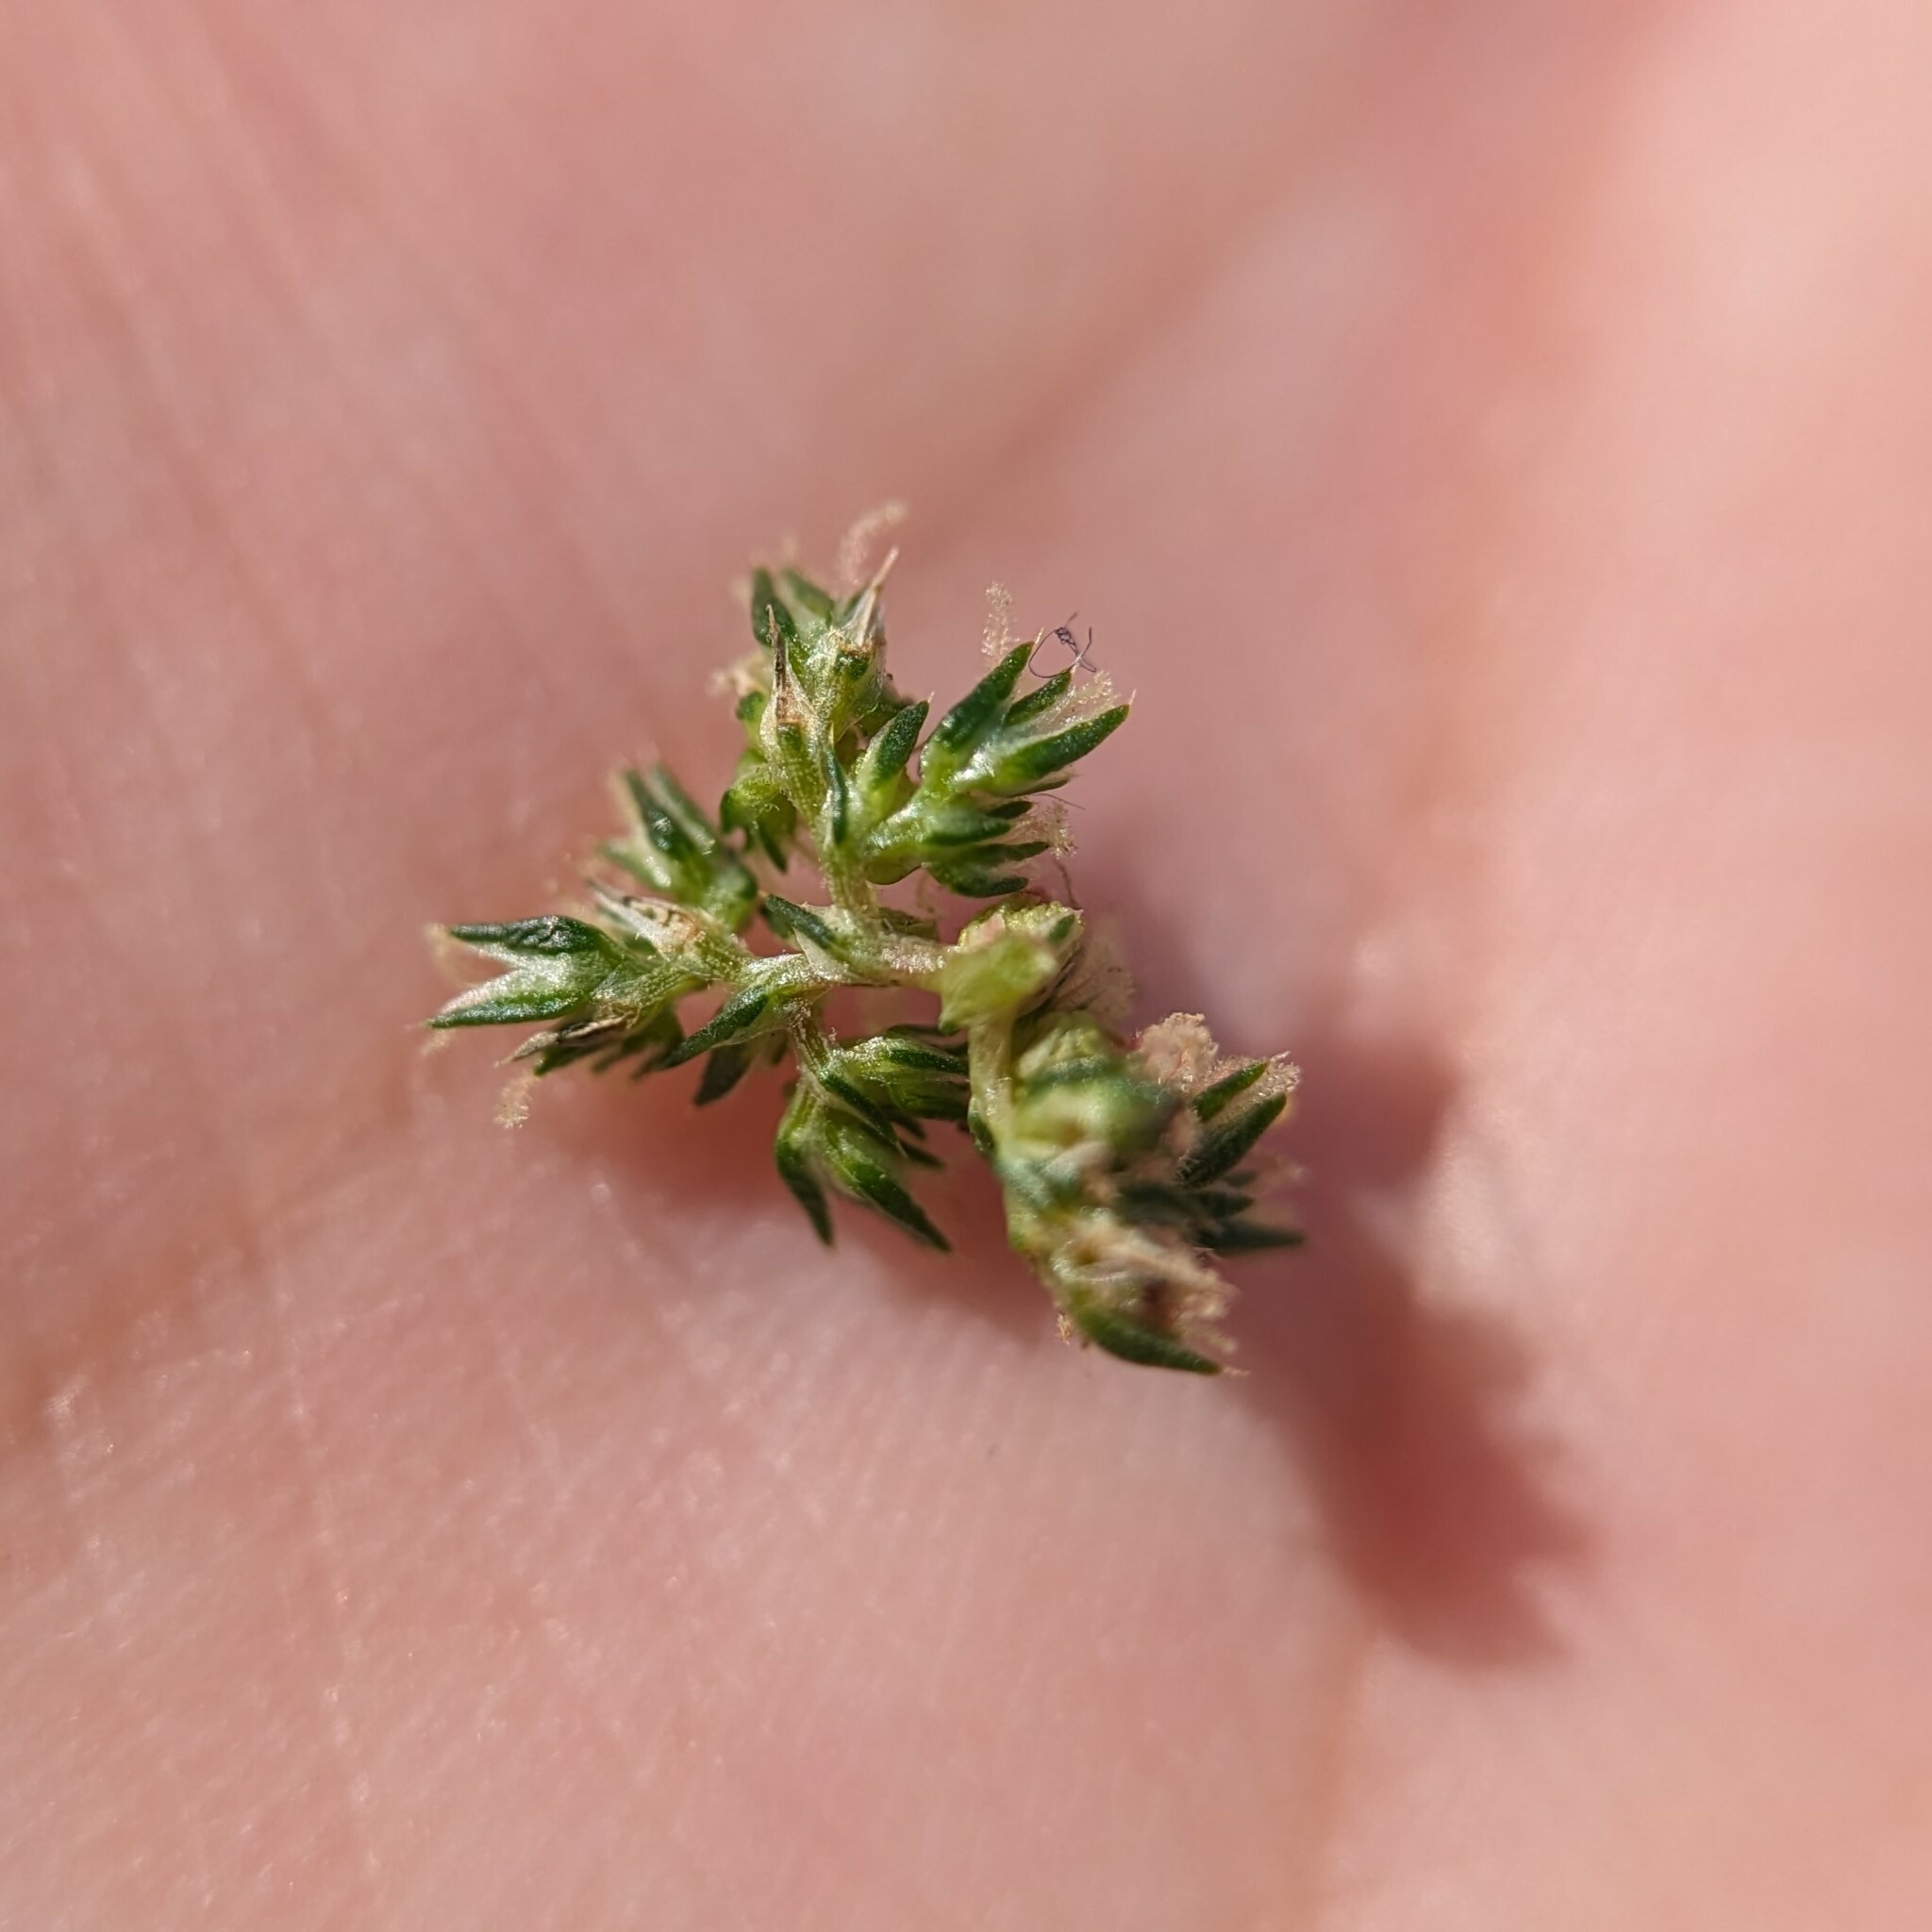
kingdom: Plantae
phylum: Tracheophyta
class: Magnoliopsida
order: Caryophyllales
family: Amaranthaceae
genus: Amaranthus
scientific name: Amaranthus tuberculatus
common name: Rough-fruit amaranth
